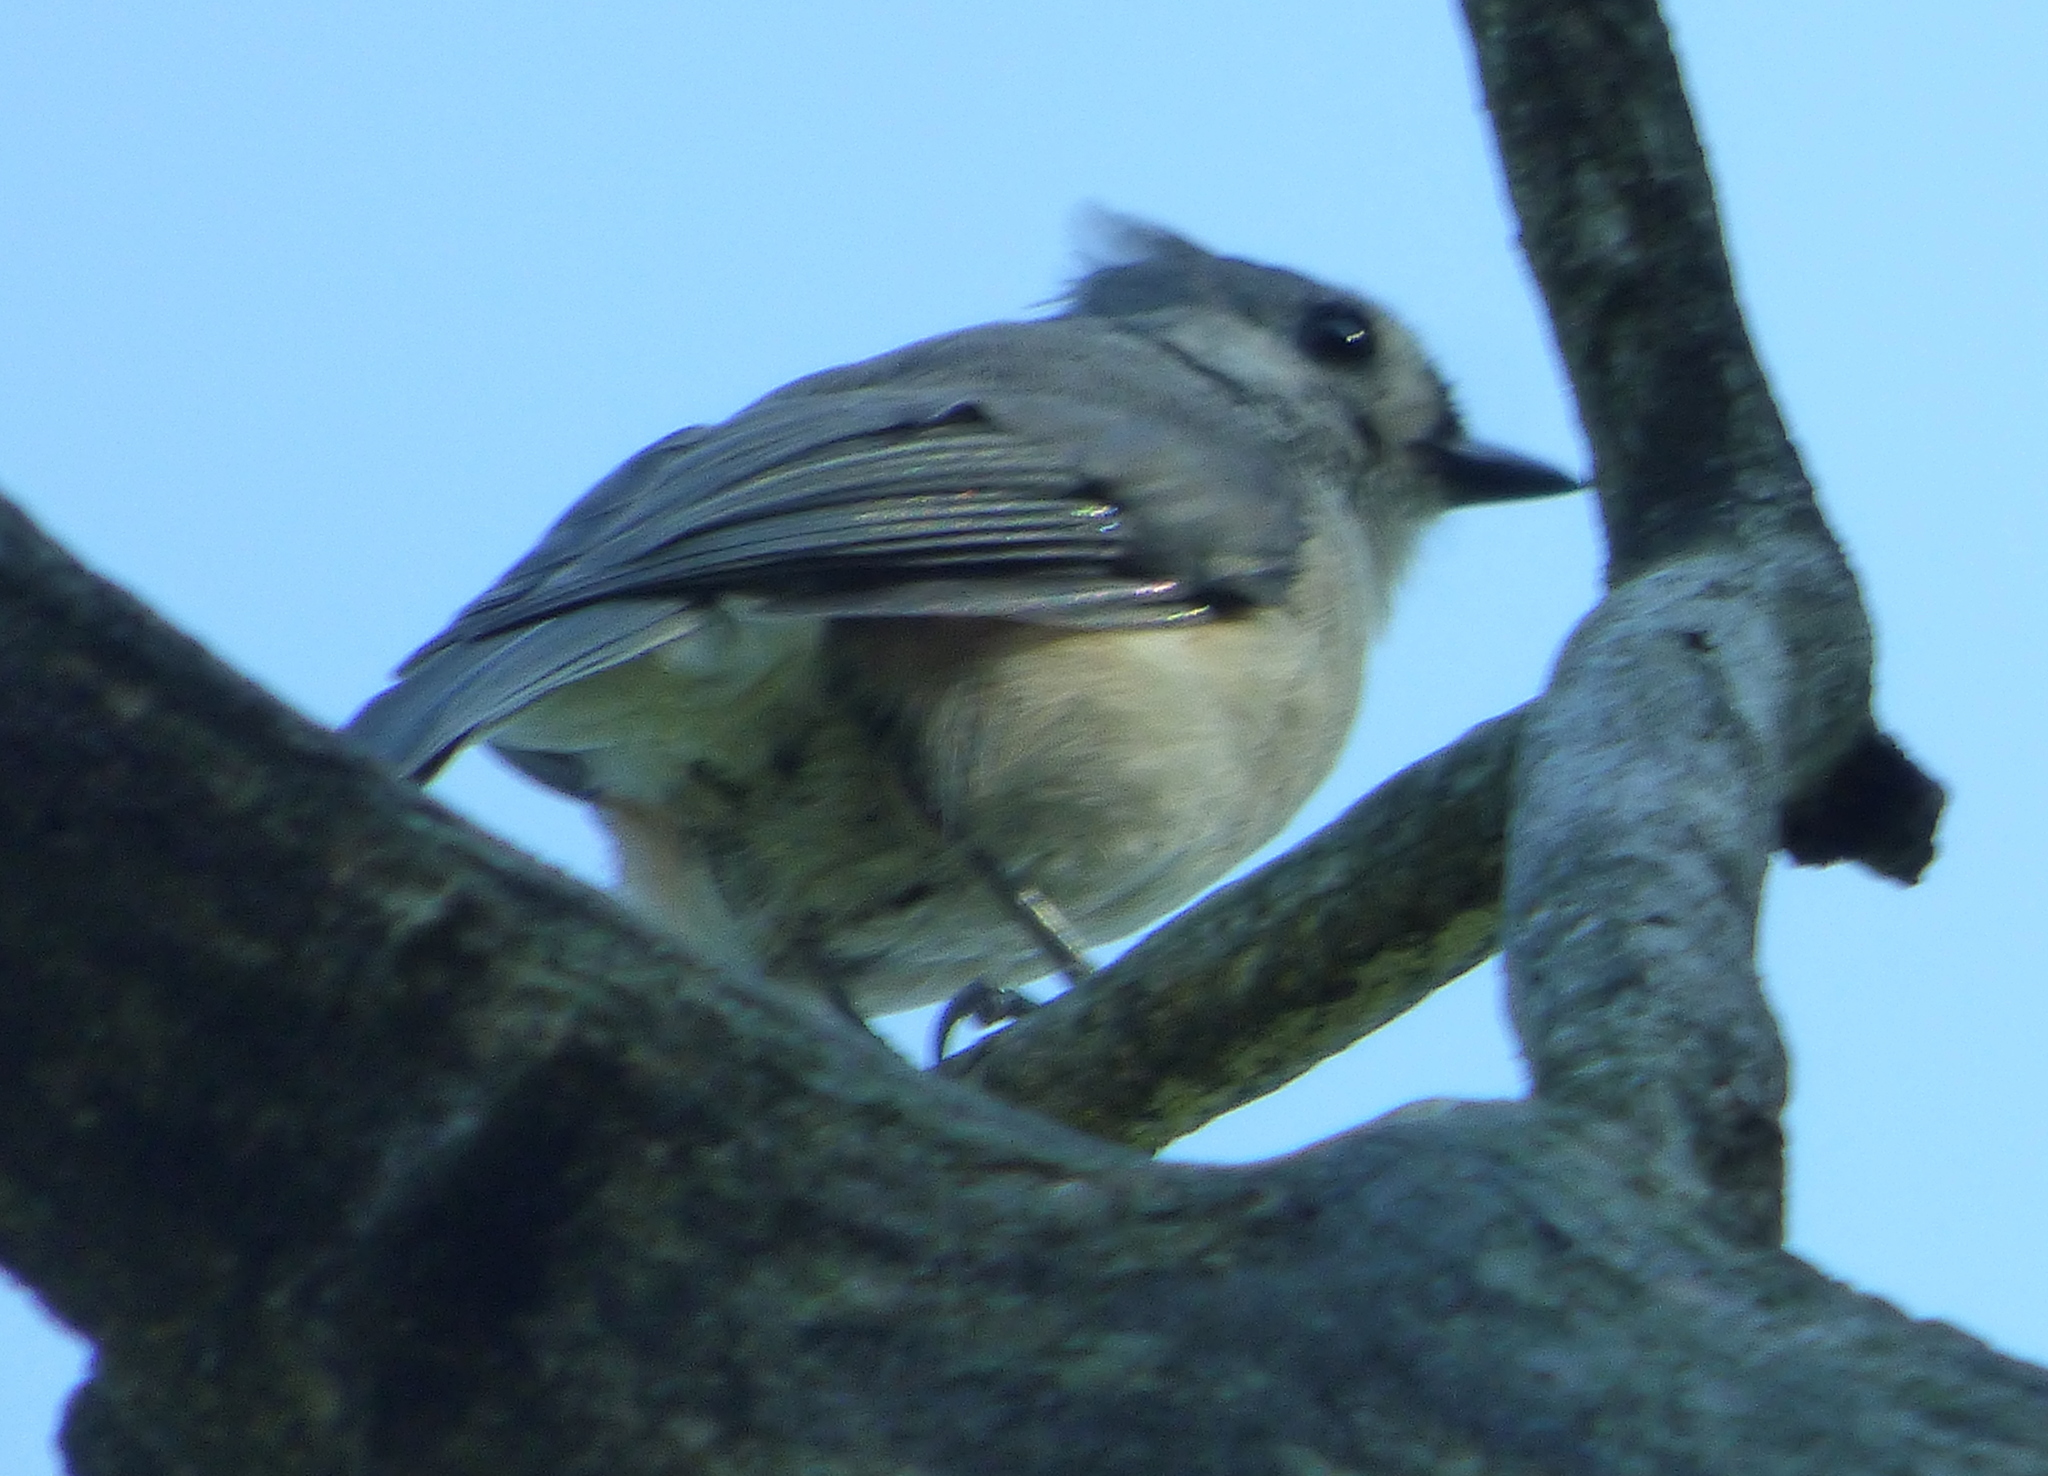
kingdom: Animalia
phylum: Chordata
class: Aves
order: Passeriformes
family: Paridae
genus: Baeolophus
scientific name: Baeolophus bicolor
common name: Tufted titmouse
